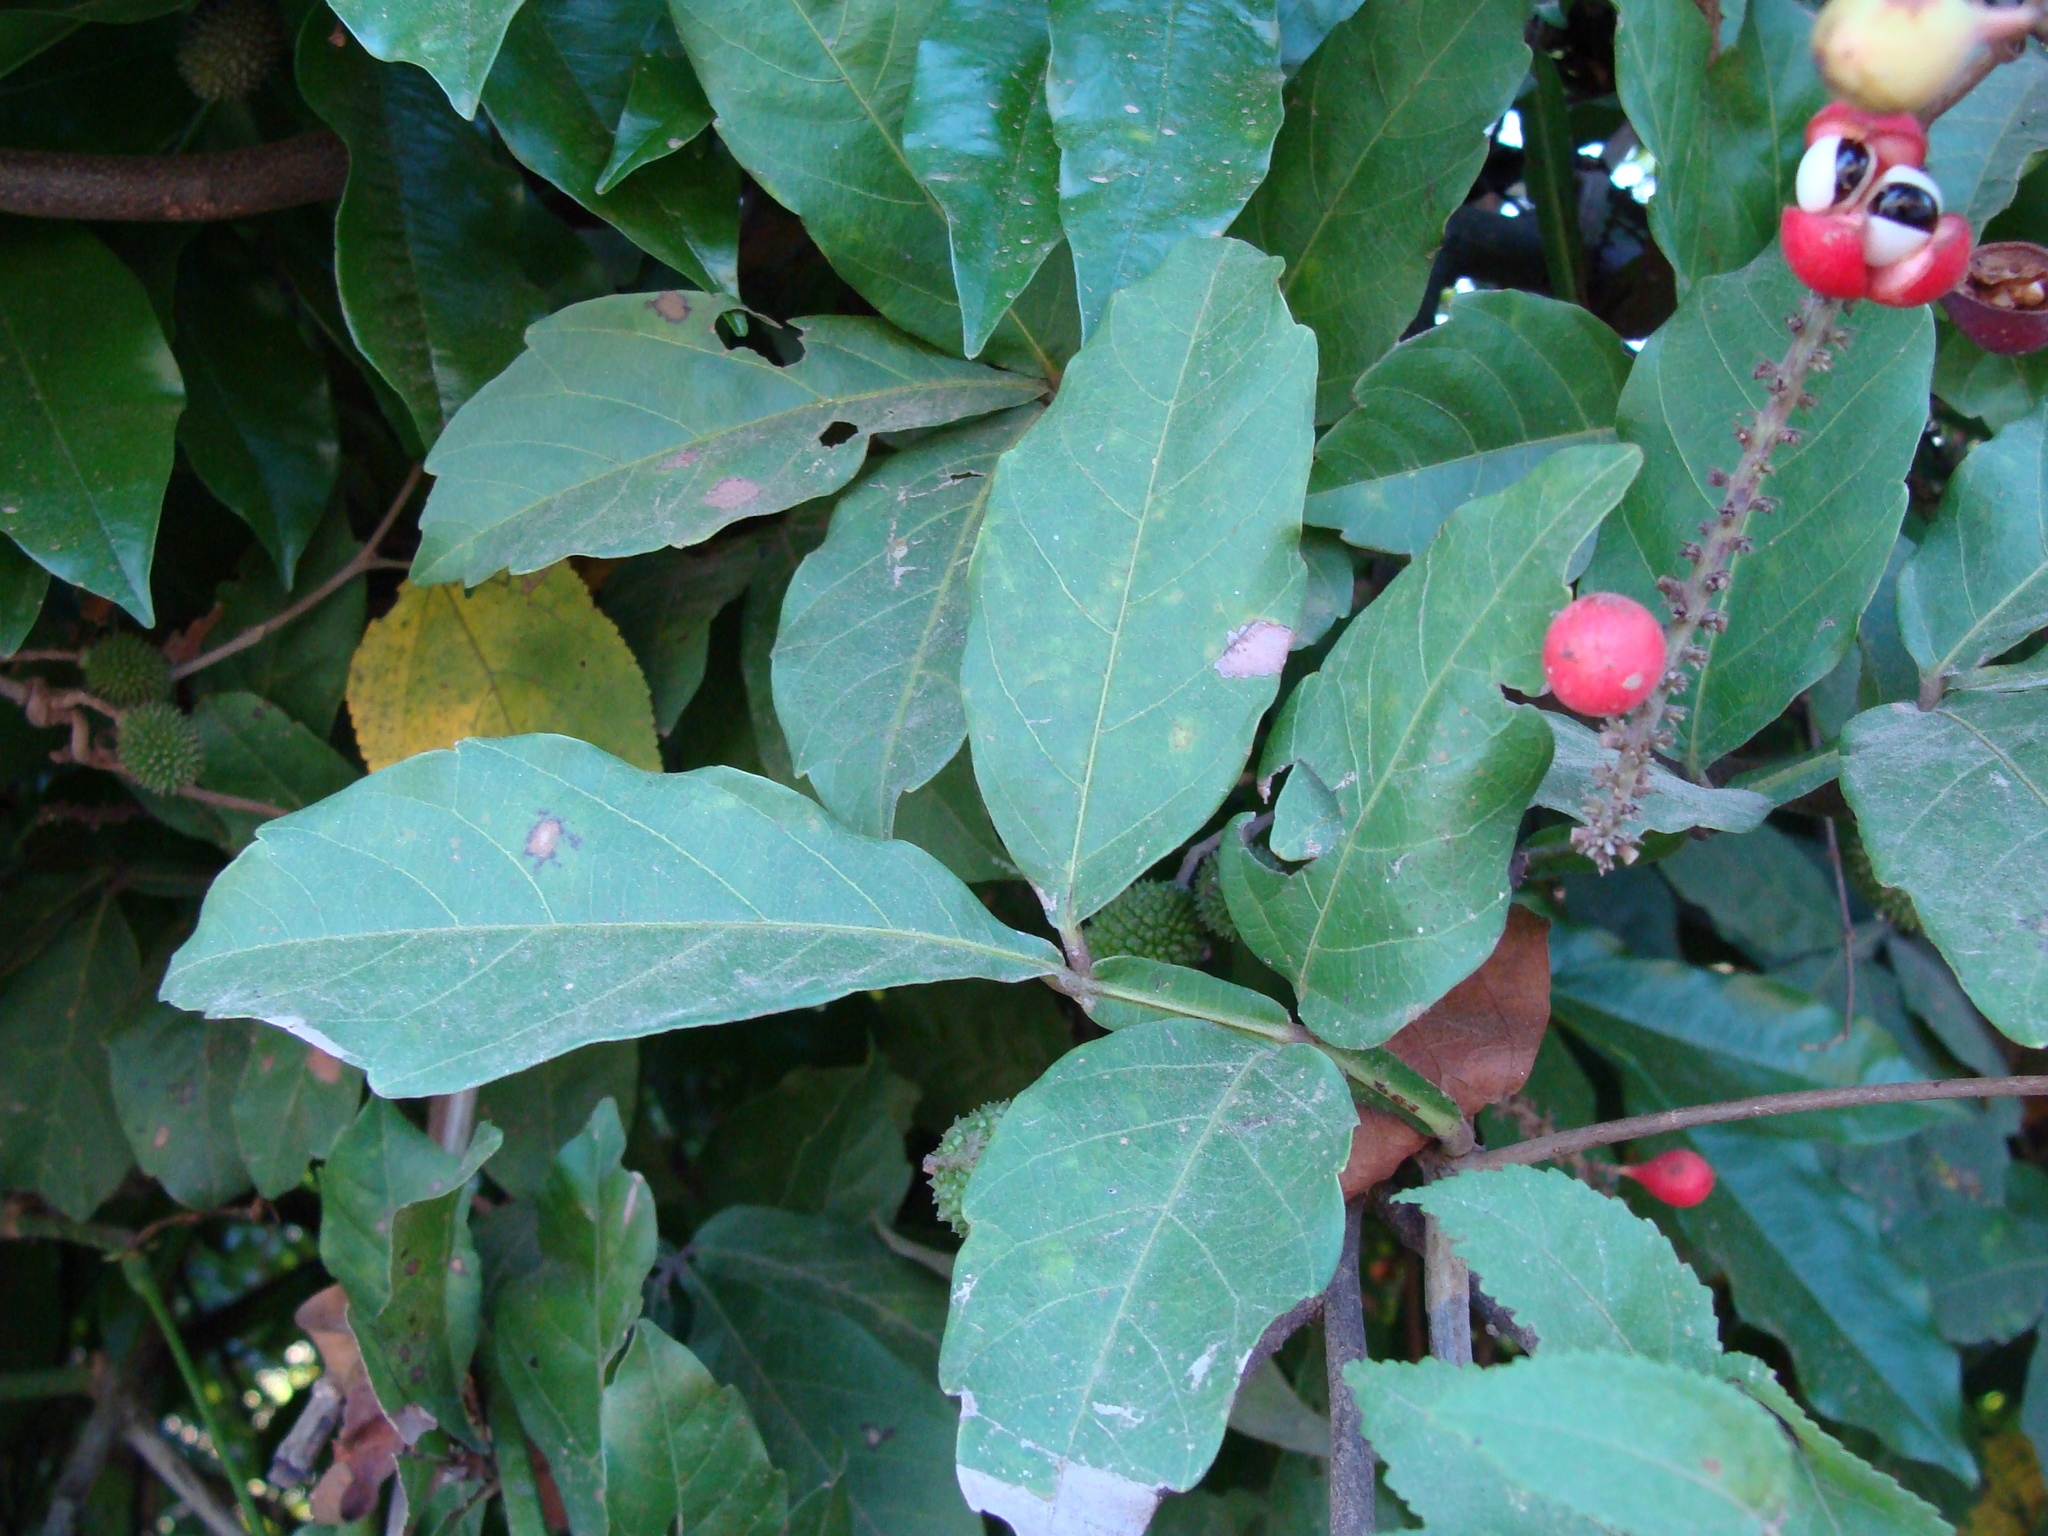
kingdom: Plantae
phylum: Tracheophyta
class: Magnoliopsida
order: Sapindales
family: Sapindaceae
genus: Paullinia
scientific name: Paullinia pinnata
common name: Barbasco
